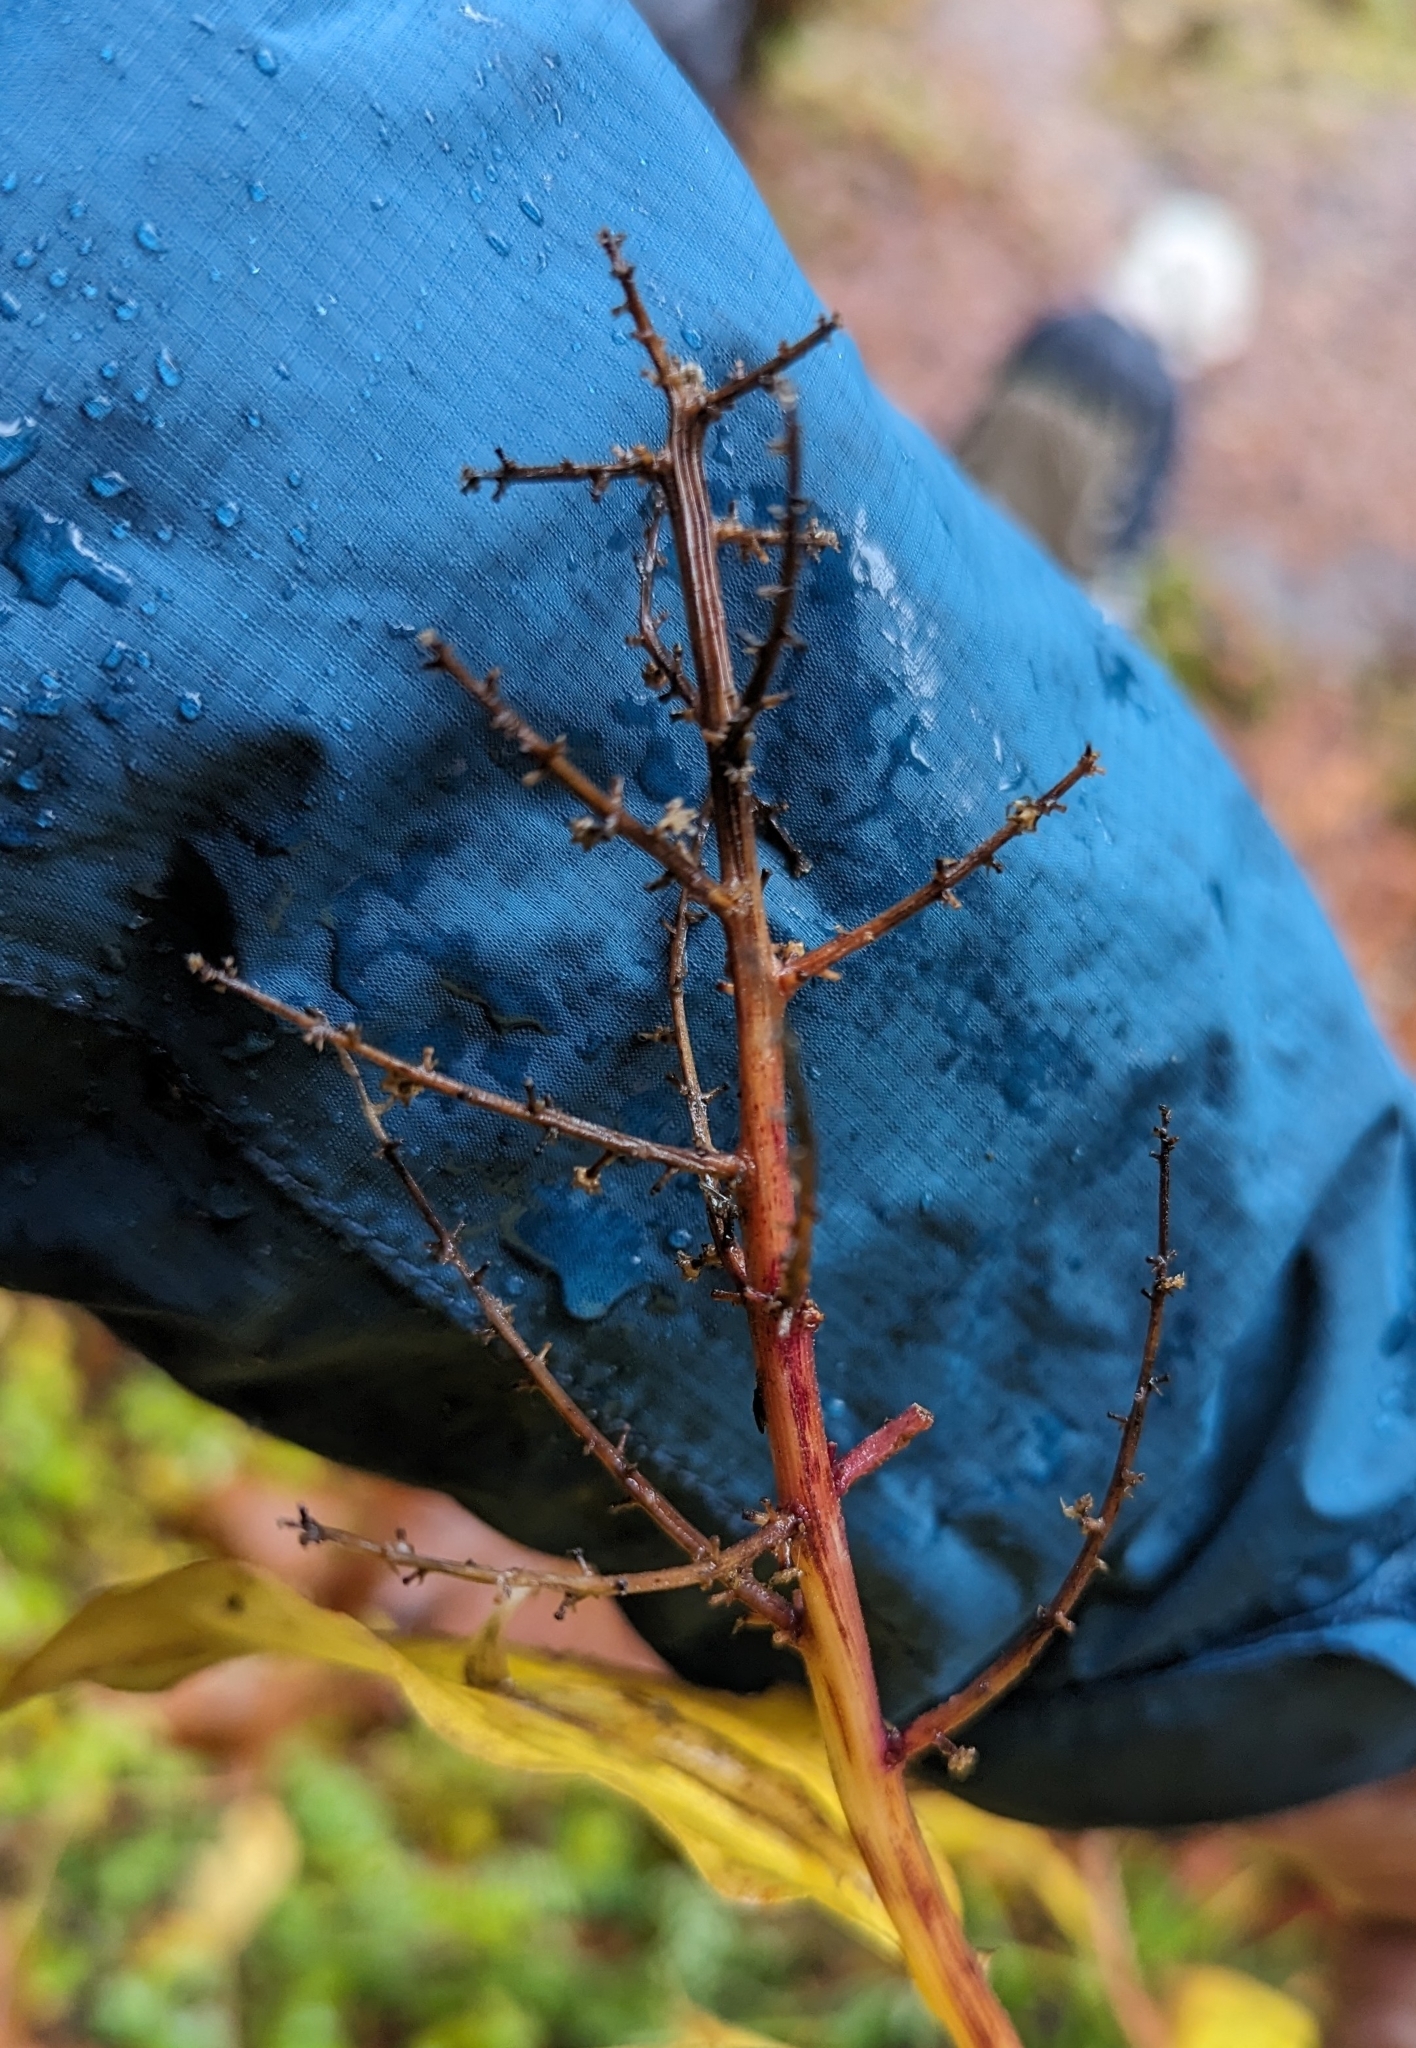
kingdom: Plantae
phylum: Tracheophyta
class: Liliopsida
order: Asparagales
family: Asparagaceae
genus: Maianthemum
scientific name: Maianthemum racemosum
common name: False spikenard
